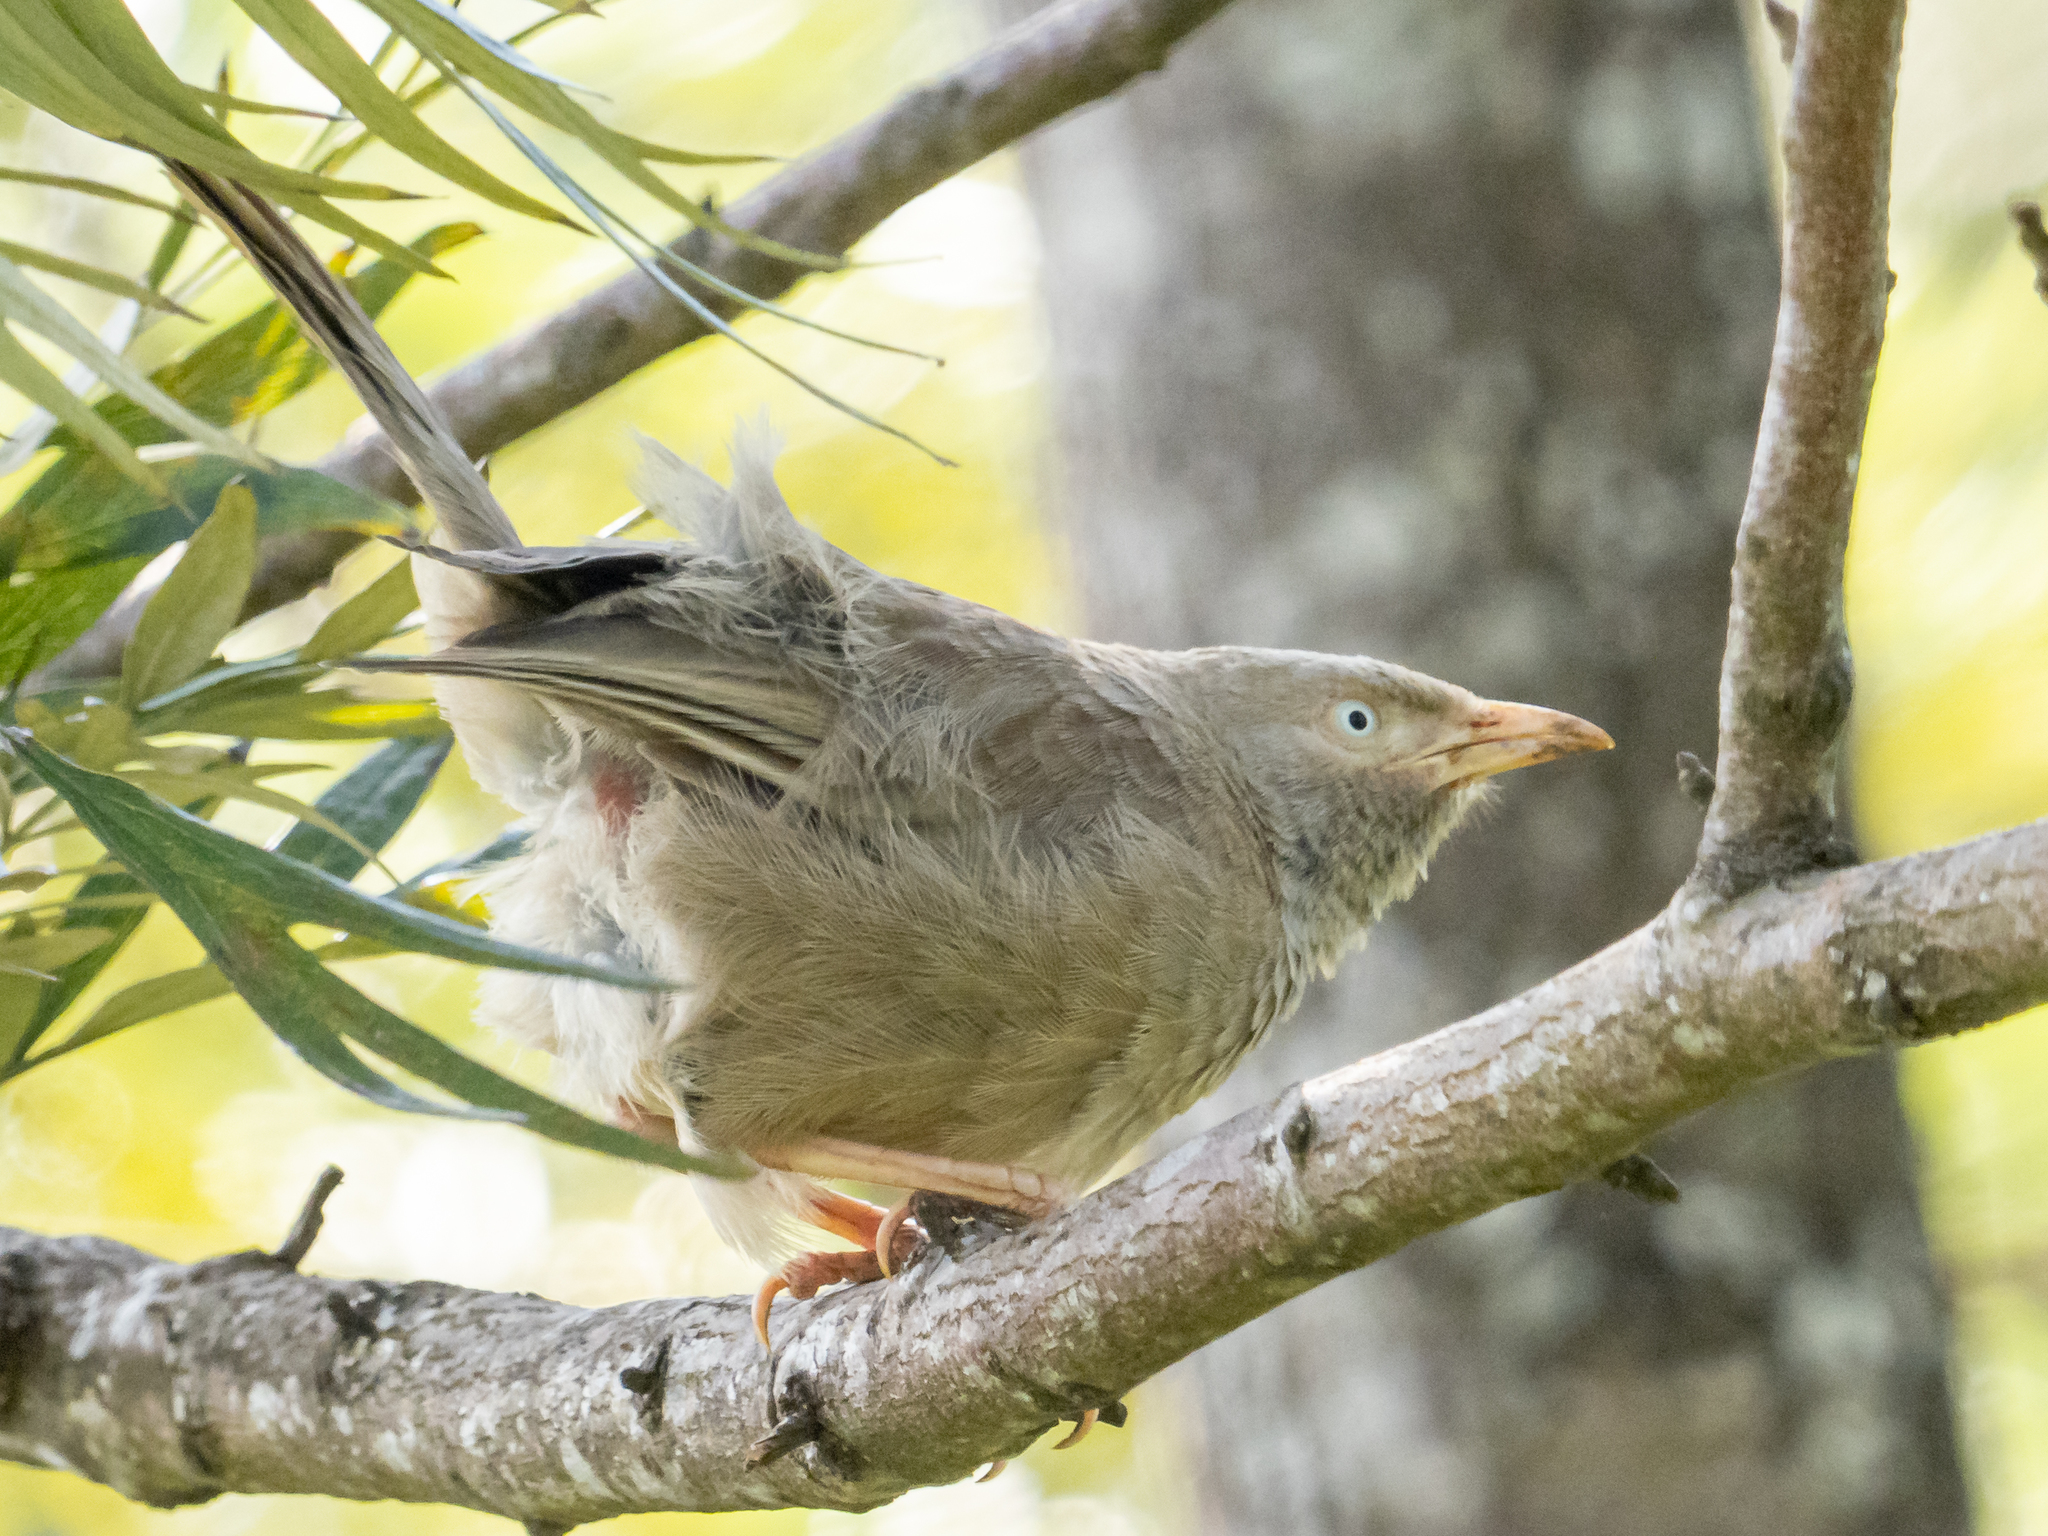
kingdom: Animalia
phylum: Chordata
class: Aves
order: Passeriformes
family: Leiothrichidae
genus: Turdoides
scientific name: Turdoides affinis
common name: Yellow-billed babbler
